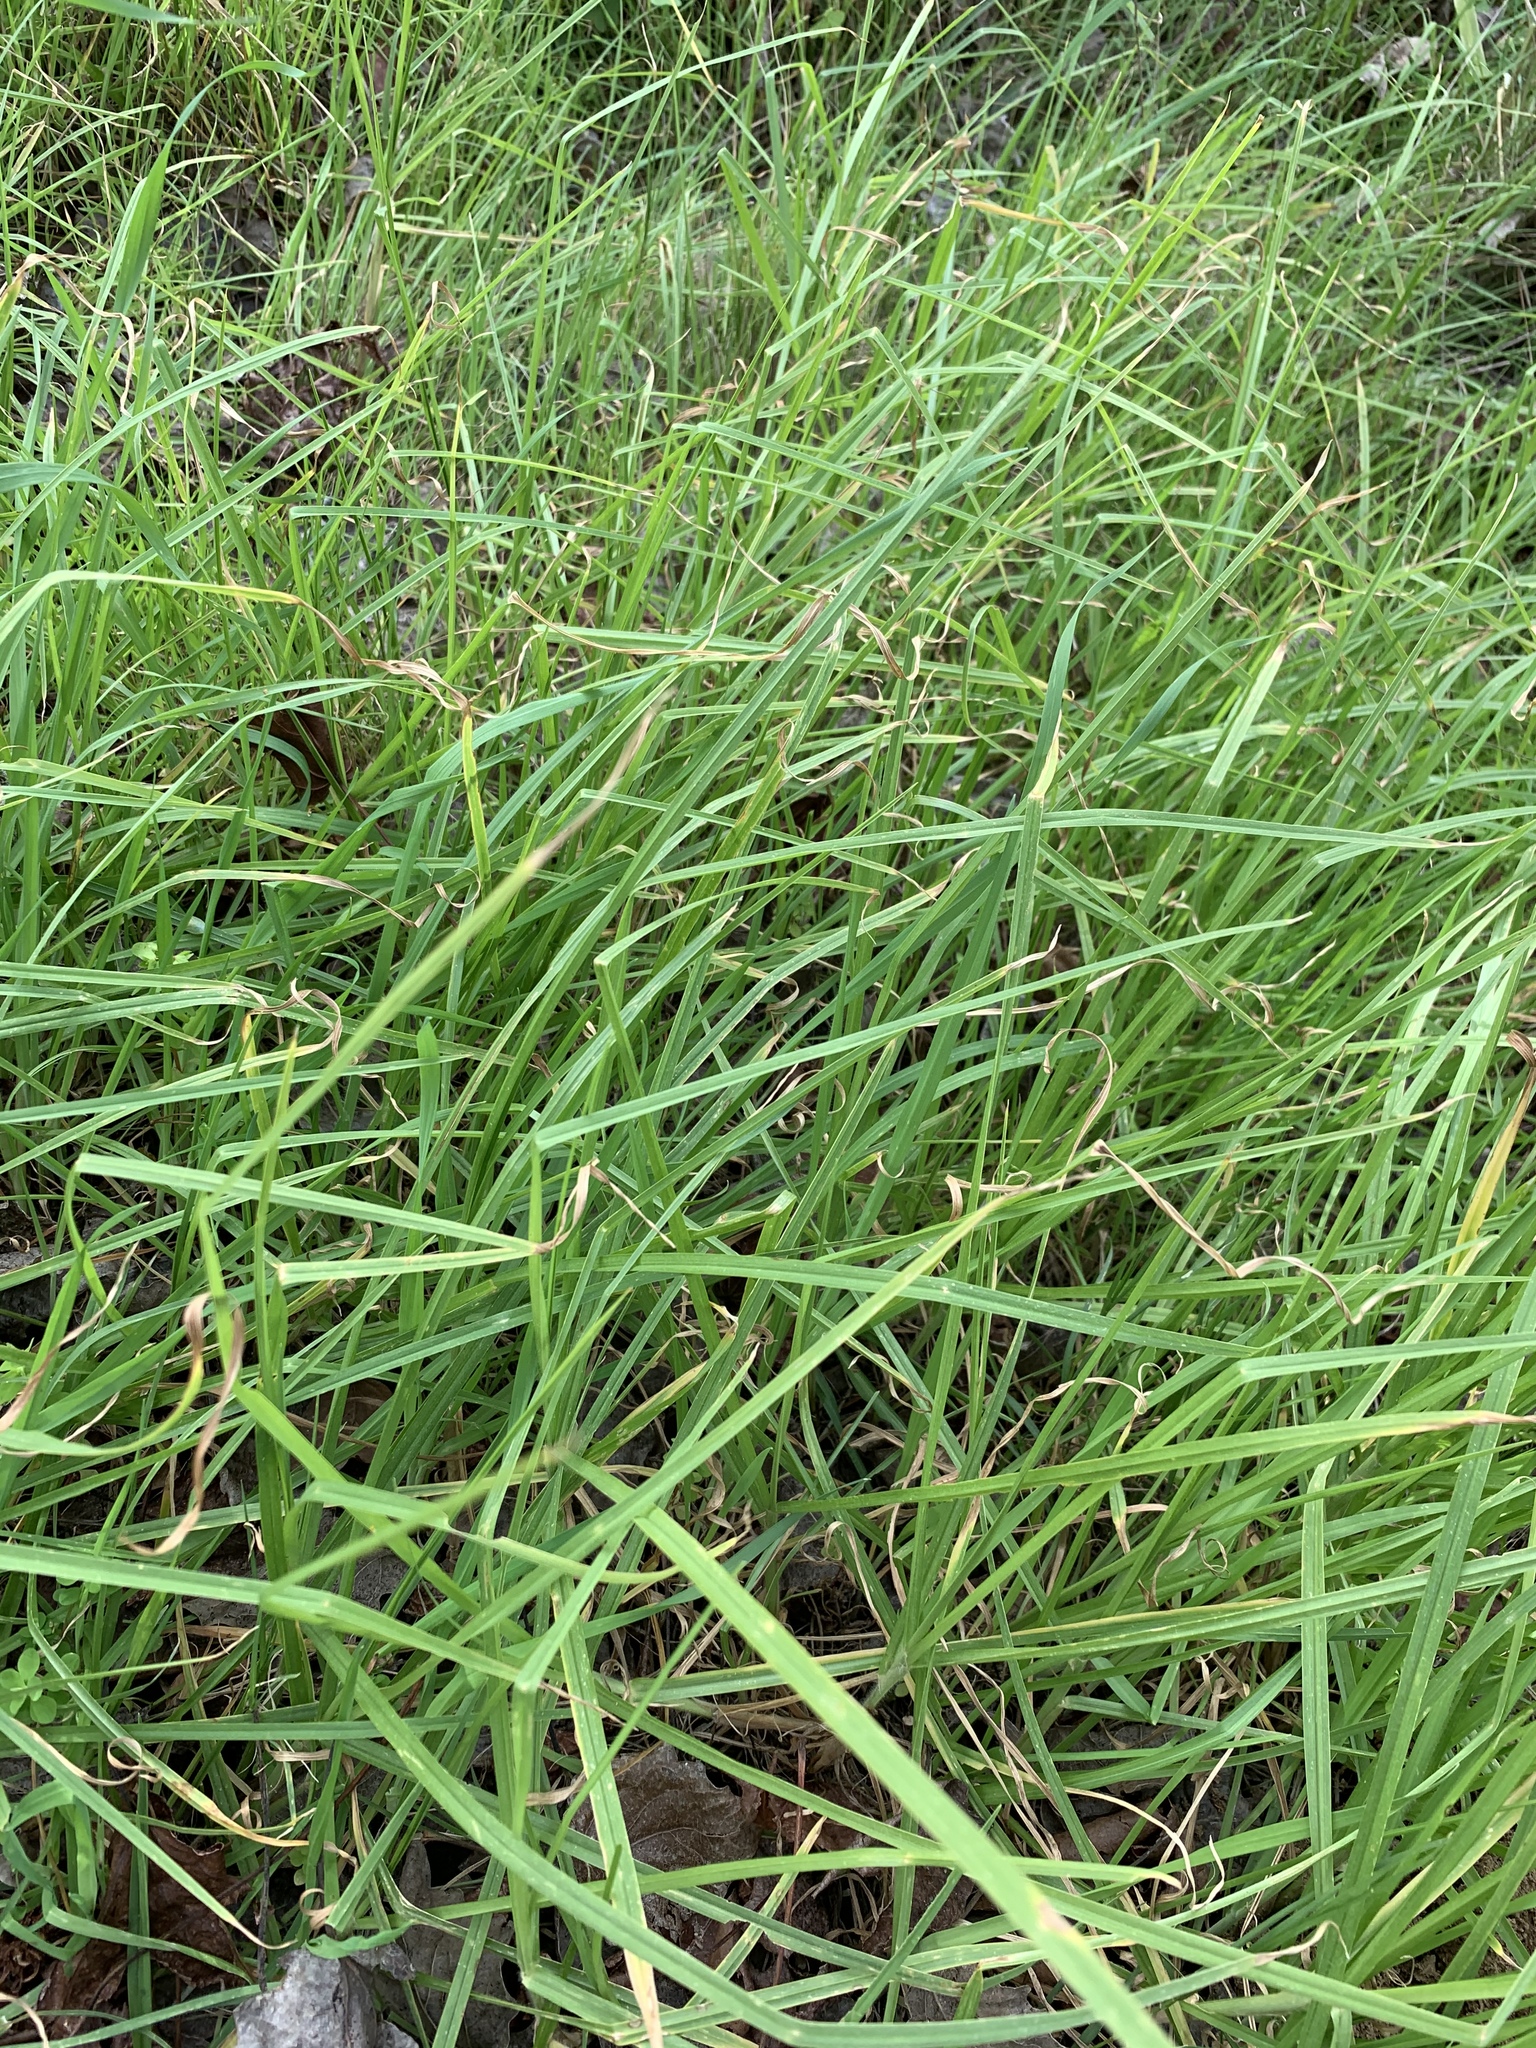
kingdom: Plantae
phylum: Tracheophyta
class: Liliopsida
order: Poales
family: Poaceae
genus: Cenchrus
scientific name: Cenchrus clandestinus
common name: Kikuyugrass
